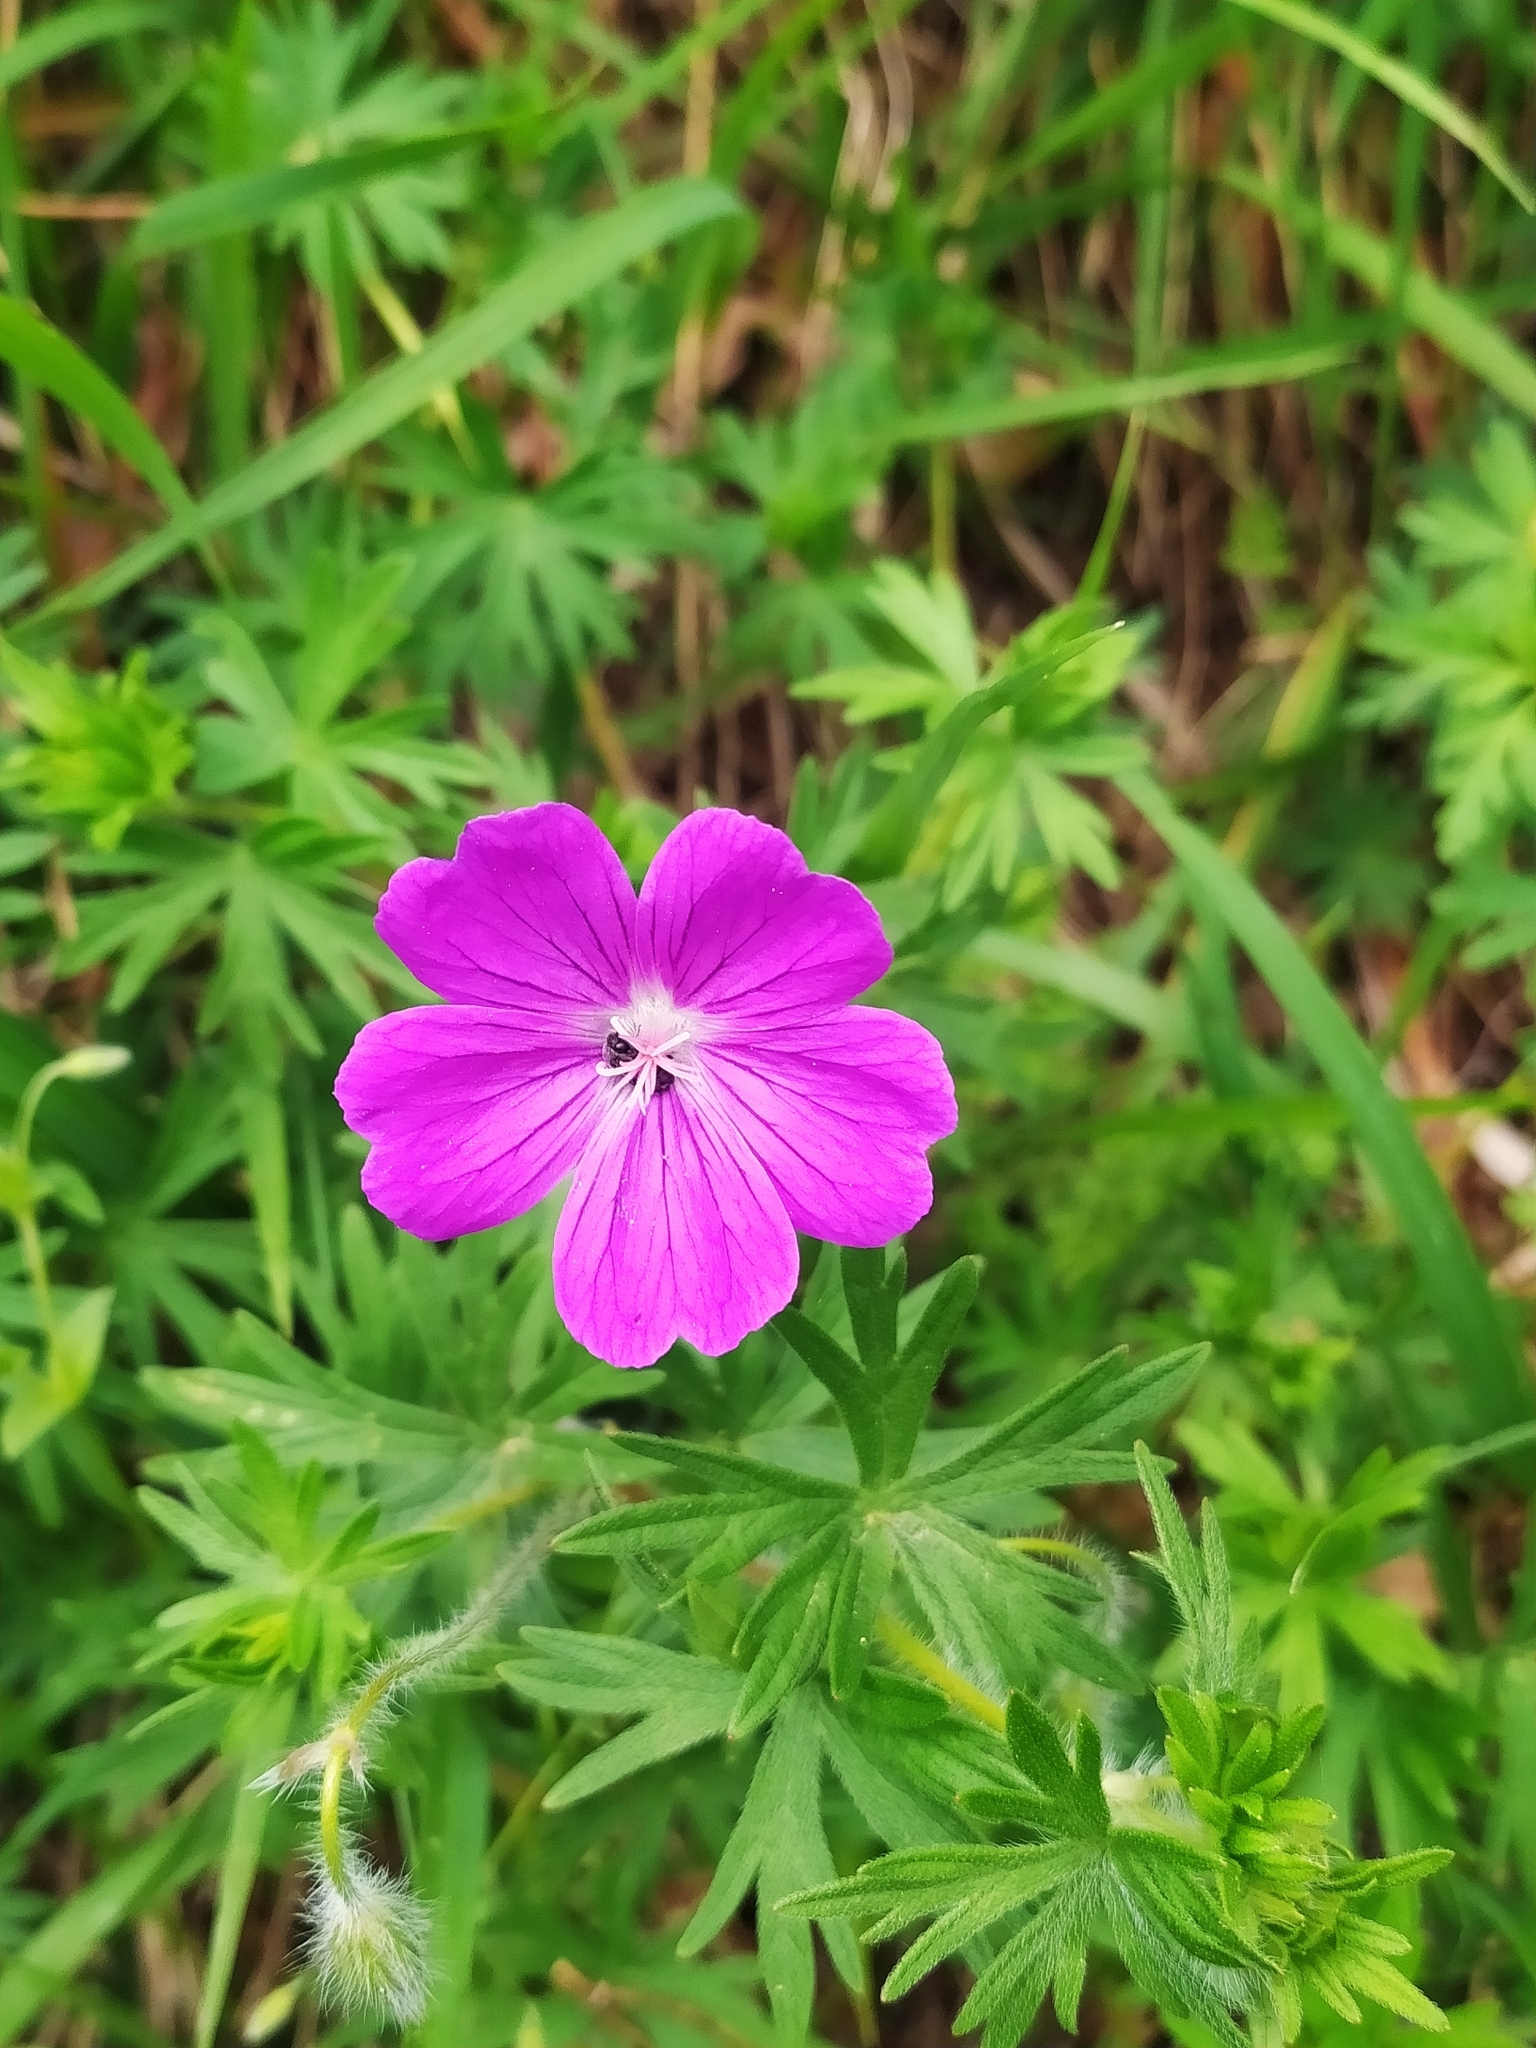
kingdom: Plantae
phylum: Tracheophyta
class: Magnoliopsida
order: Geraniales
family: Geraniaceae
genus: Geranium
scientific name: Geranium sanguineum
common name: Bloody crane's-bill
